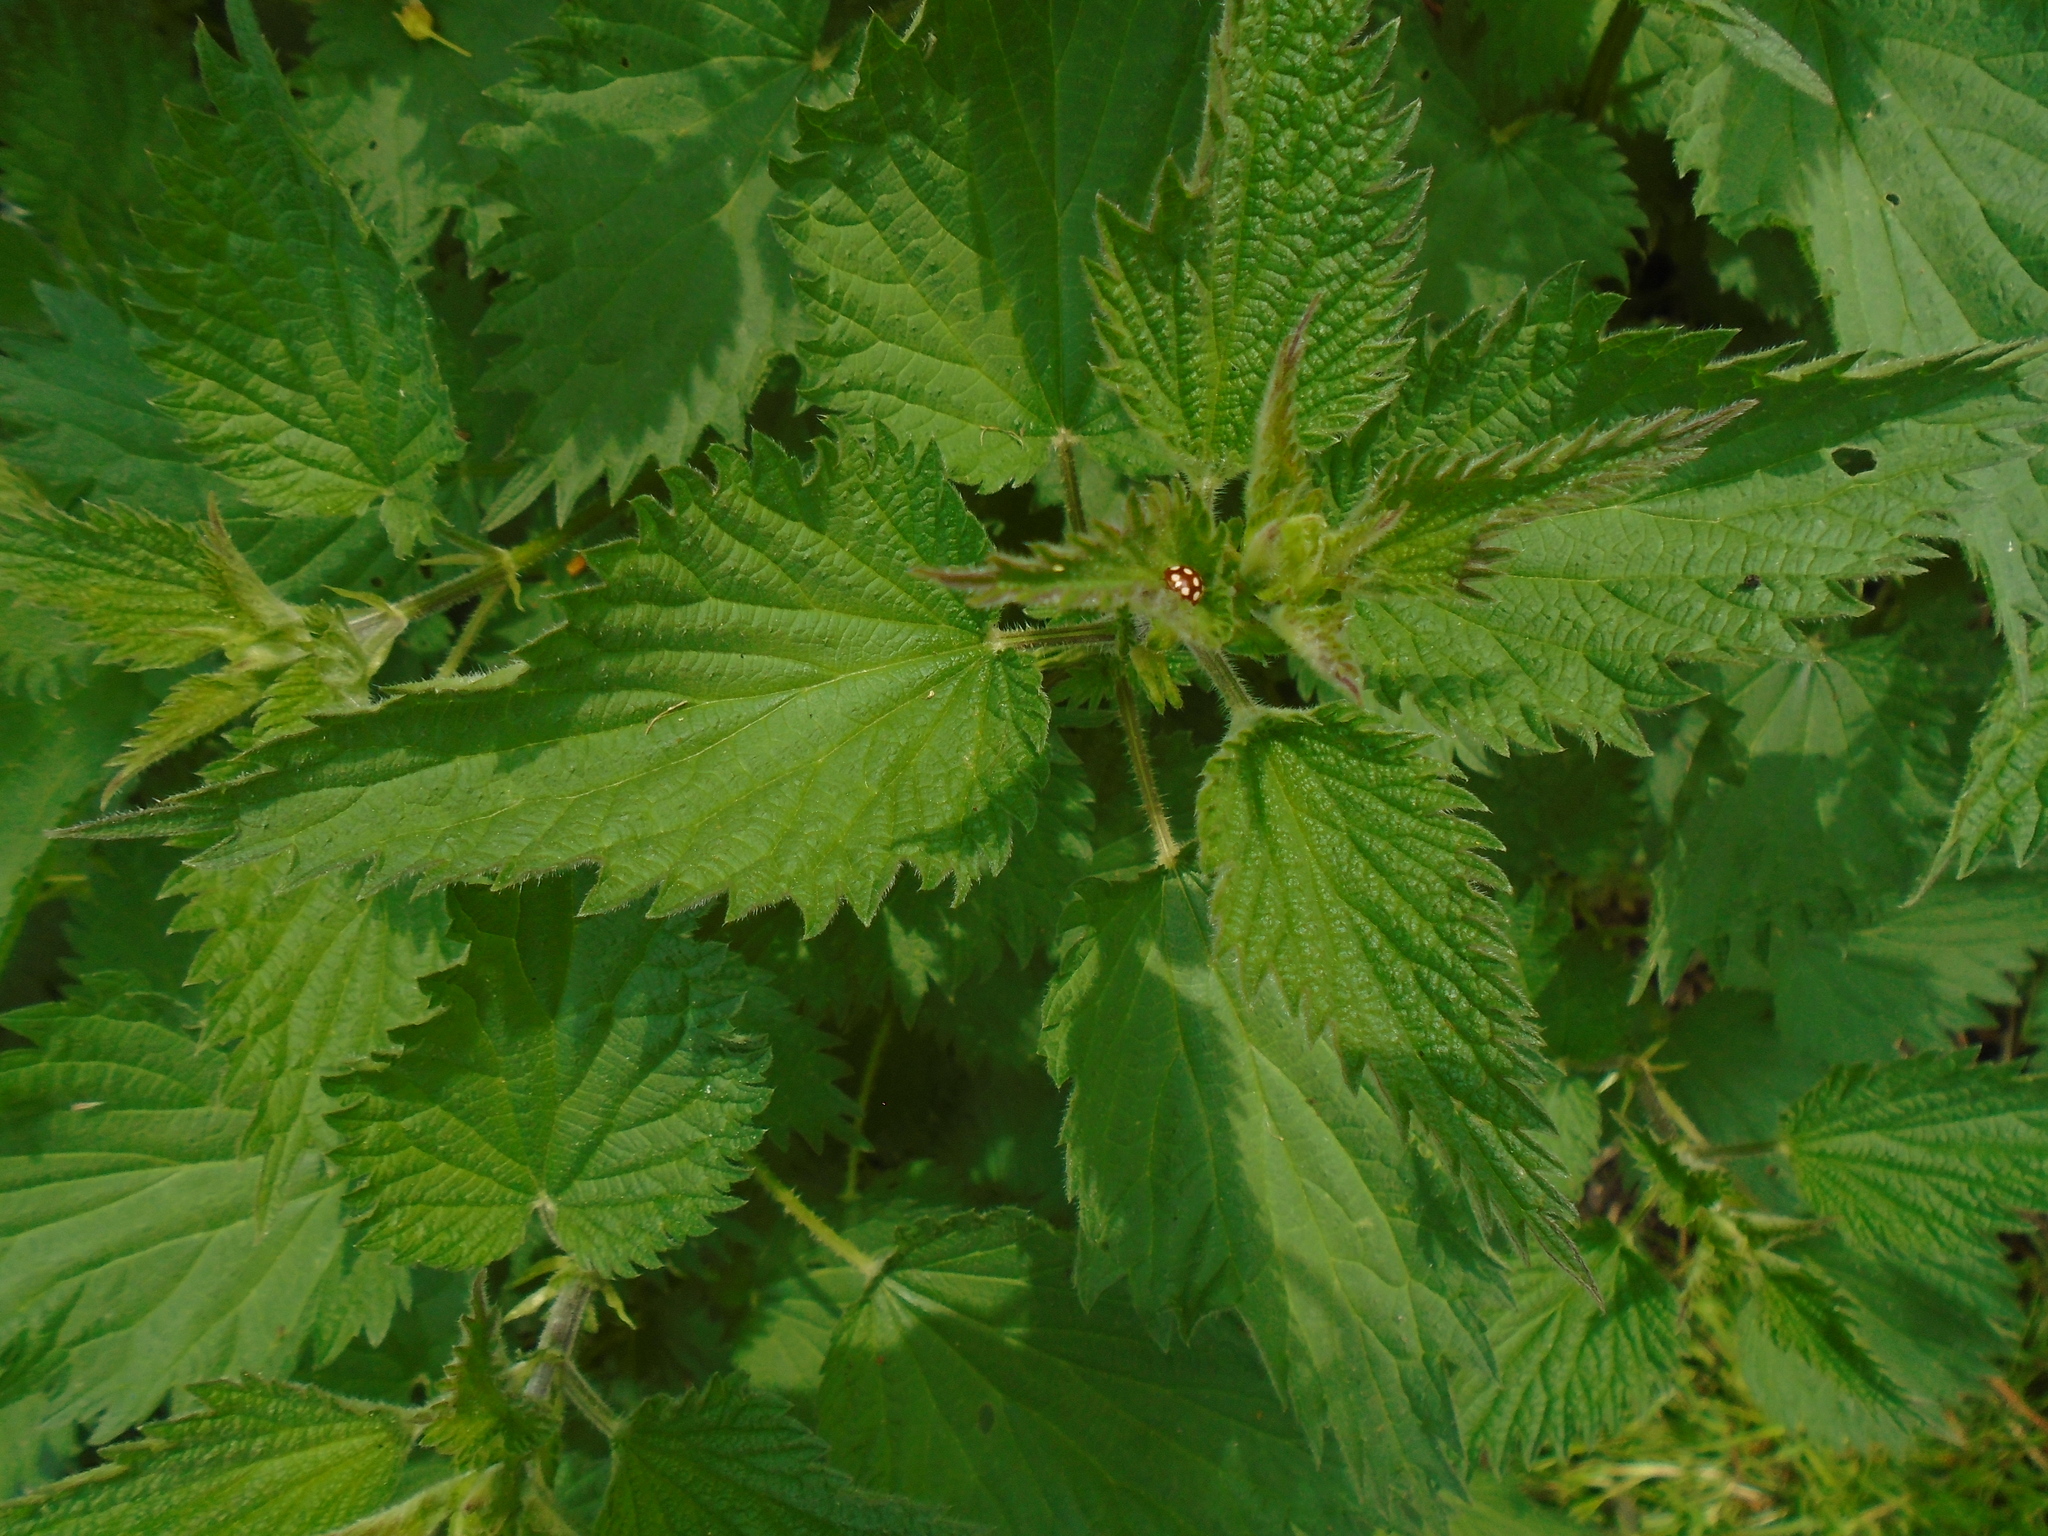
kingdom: Animalia
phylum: Arthropoda
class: Insecta
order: Coleoptera
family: Coccinellidae
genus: Calvia
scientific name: Calvia quatuordecimguttata
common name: Cream-spot ladybird
